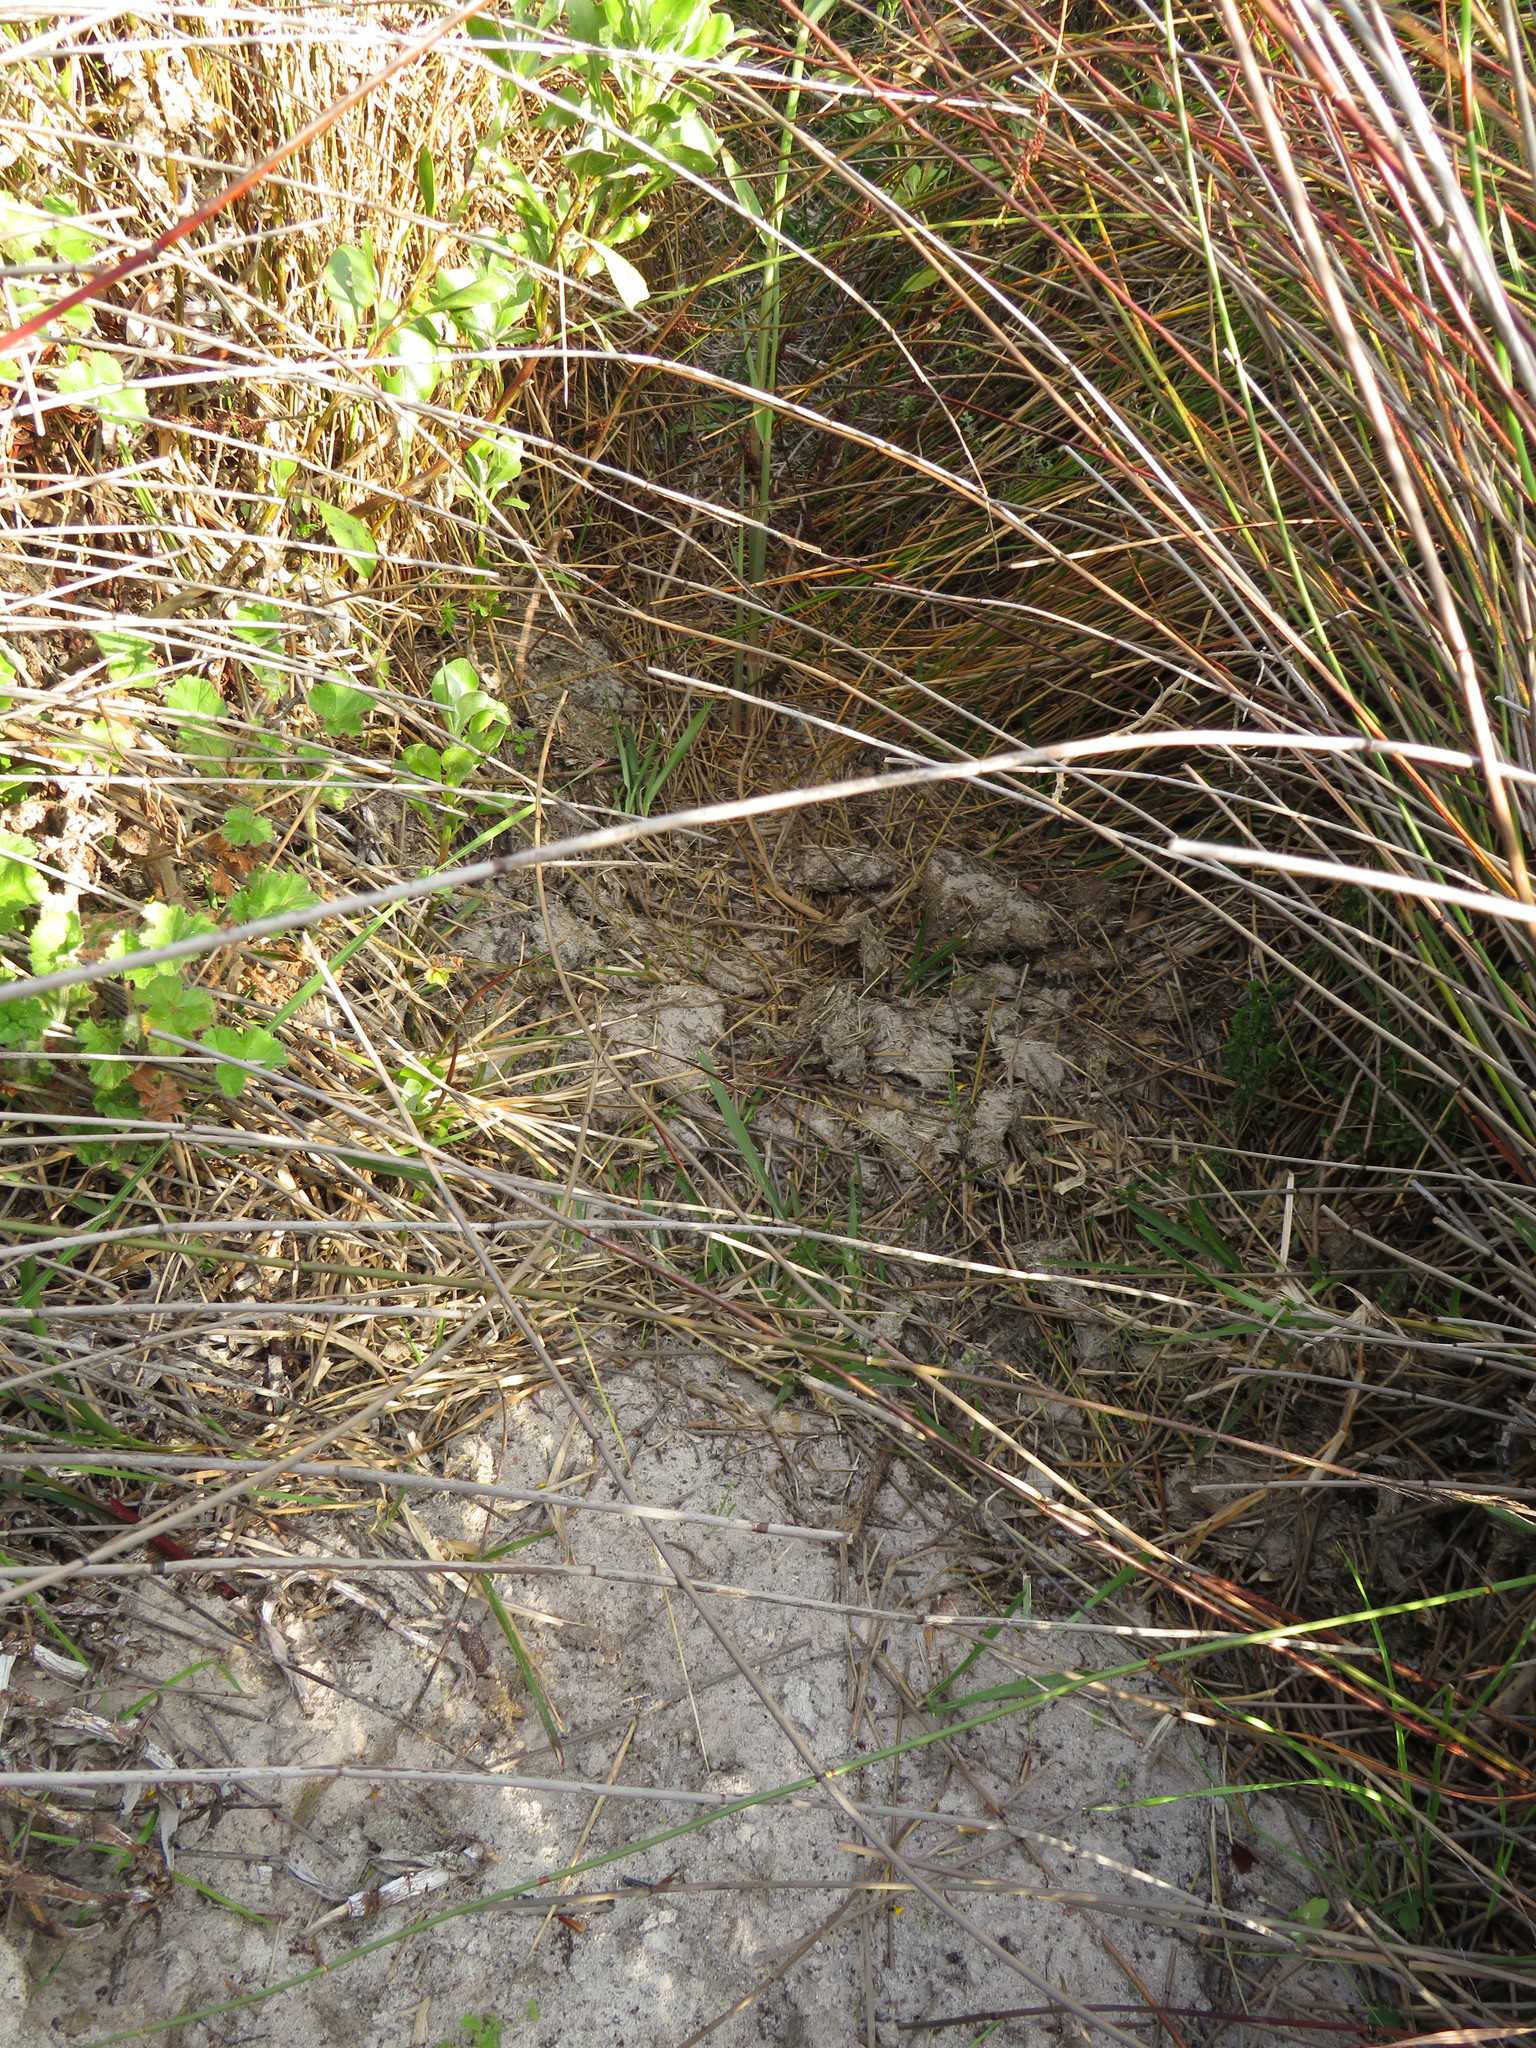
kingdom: Animalia
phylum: Chordata
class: Mammalia
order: Artiodactyla
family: Hippopotamidae
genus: Hippopotamus
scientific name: Hippopotamus amphibius
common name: Common hippopotamus
